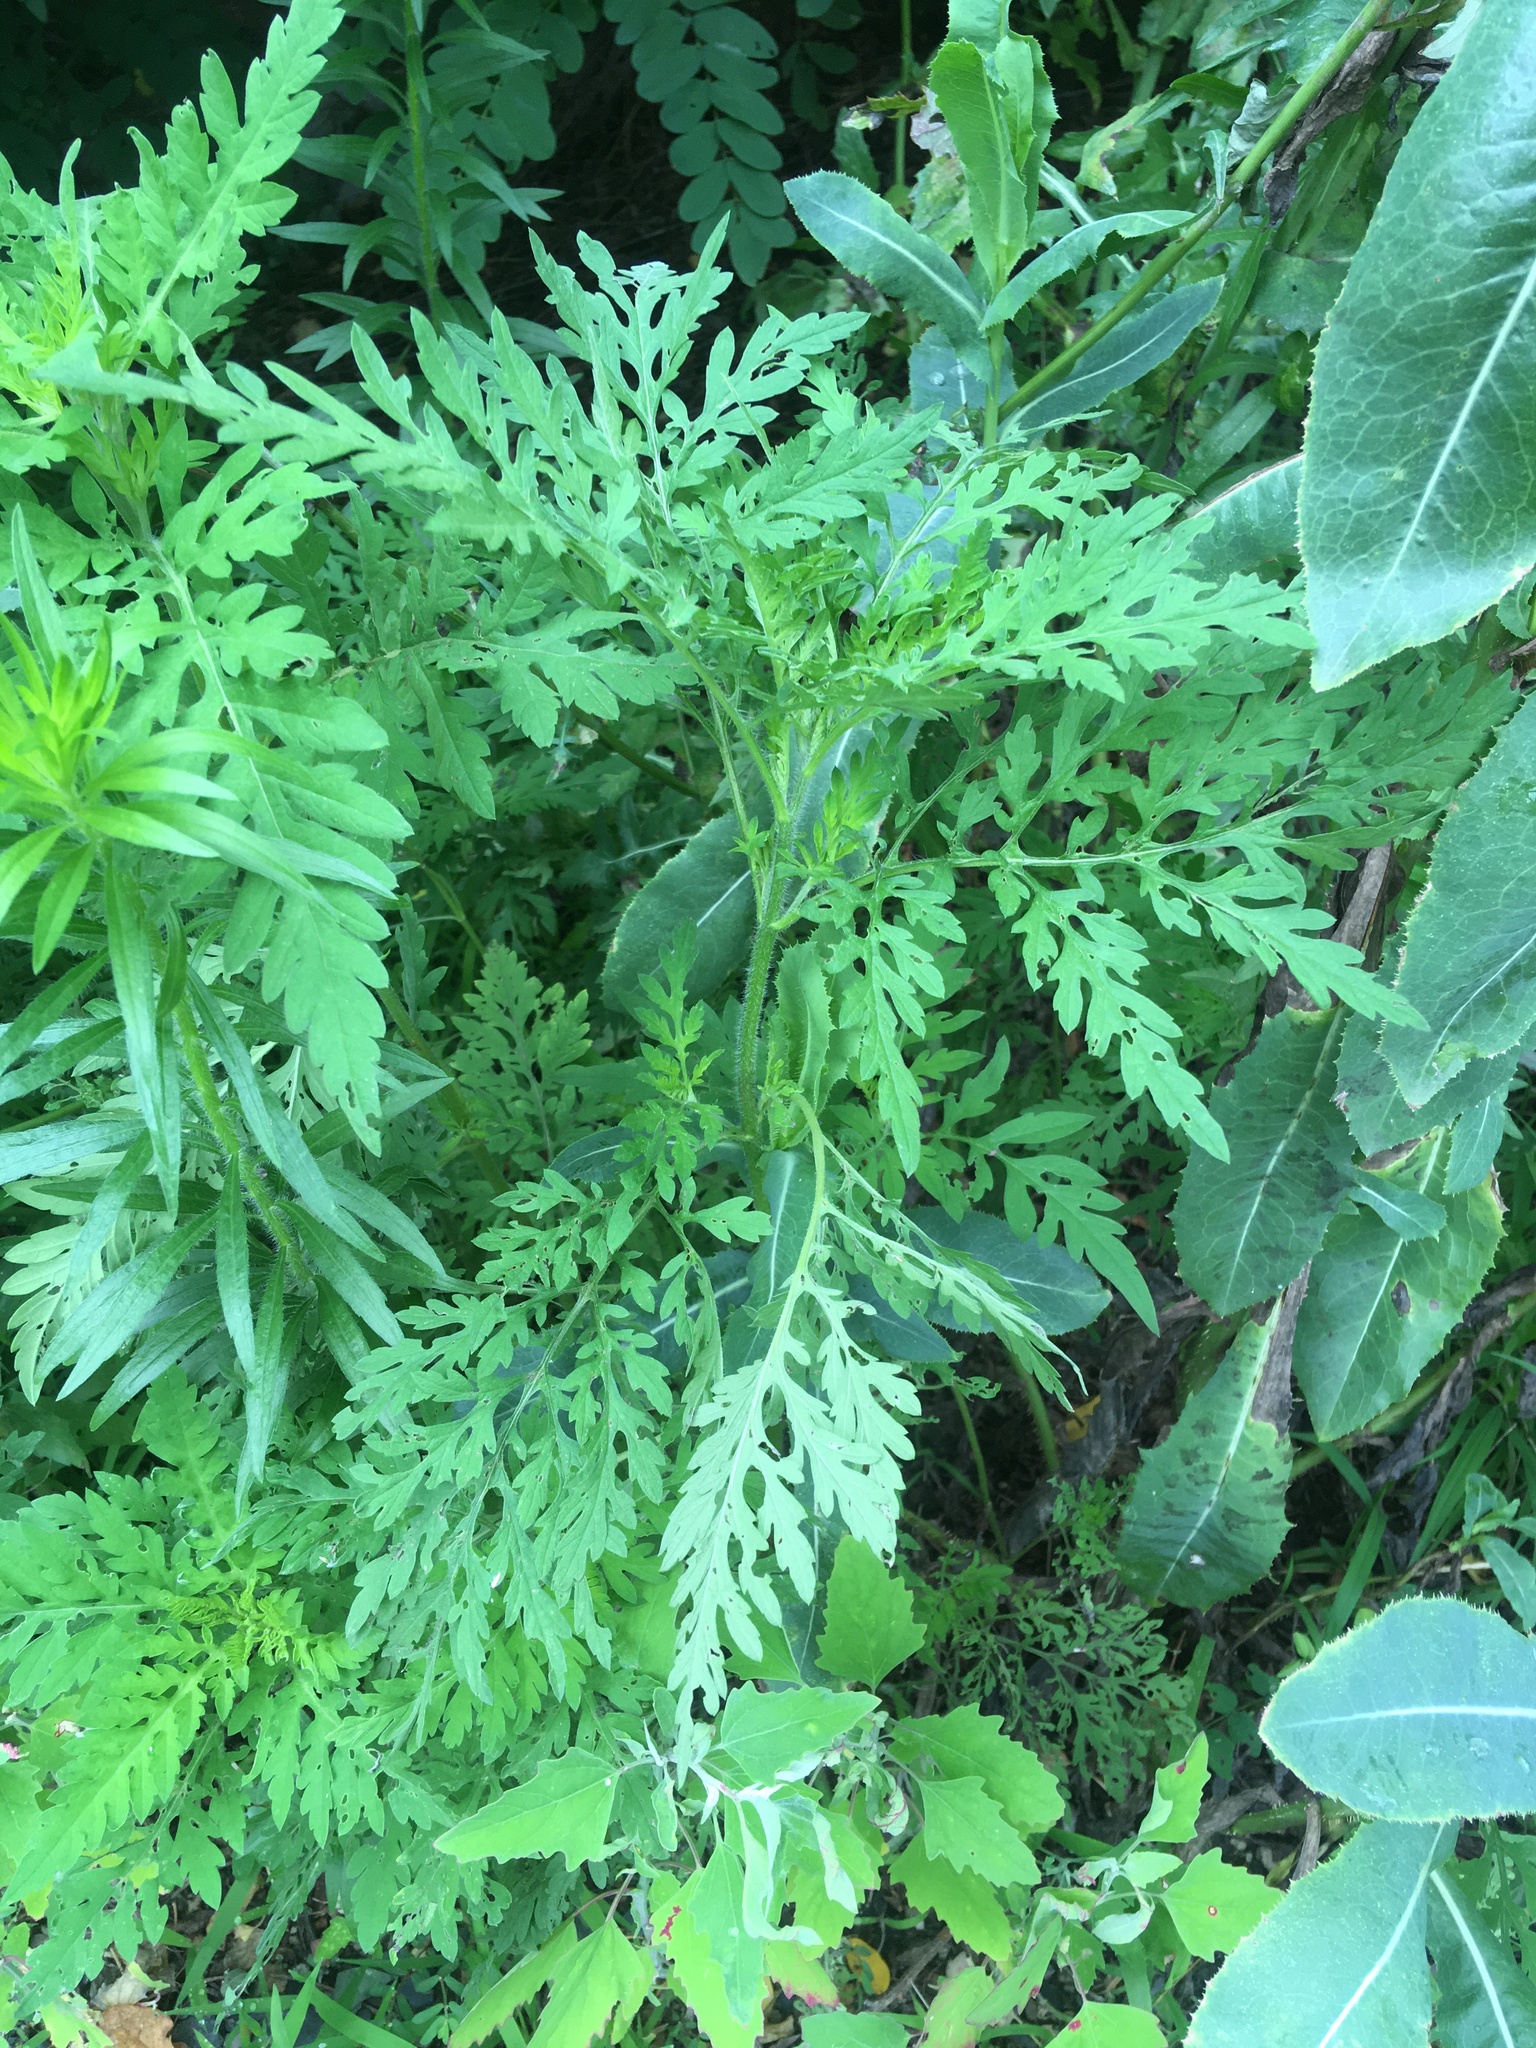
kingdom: Plantae
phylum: Tracheophyta
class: Magnoliopsida
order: Asterales
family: Asteraceae
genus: Ambrosia
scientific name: Ambrosia artemisiifolia
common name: Annual ragweed
